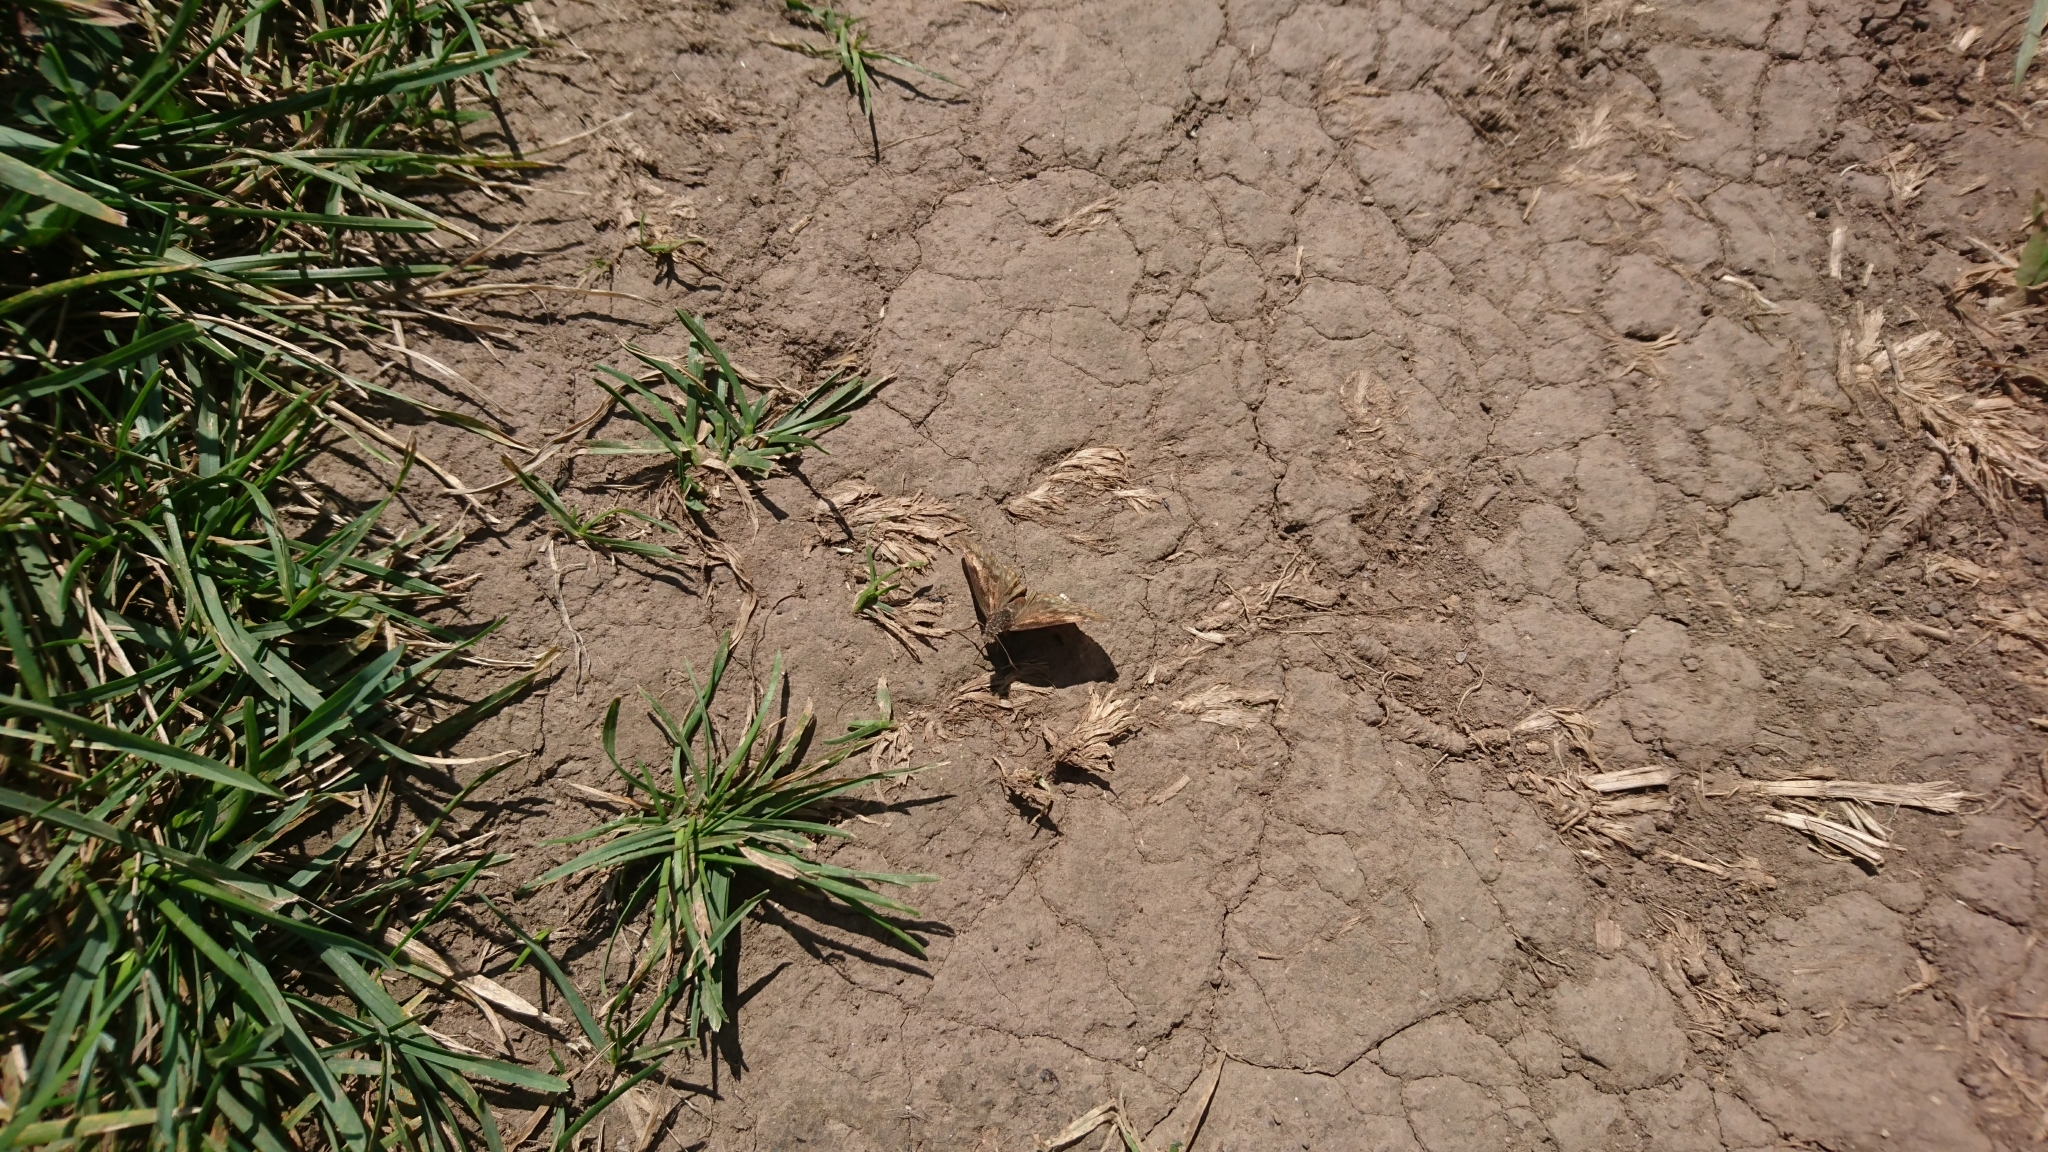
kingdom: Animalia
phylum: Arthropoda
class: Insecta
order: Lepidoptera
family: Hesperiidae
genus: Erynnis
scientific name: Erynnis
